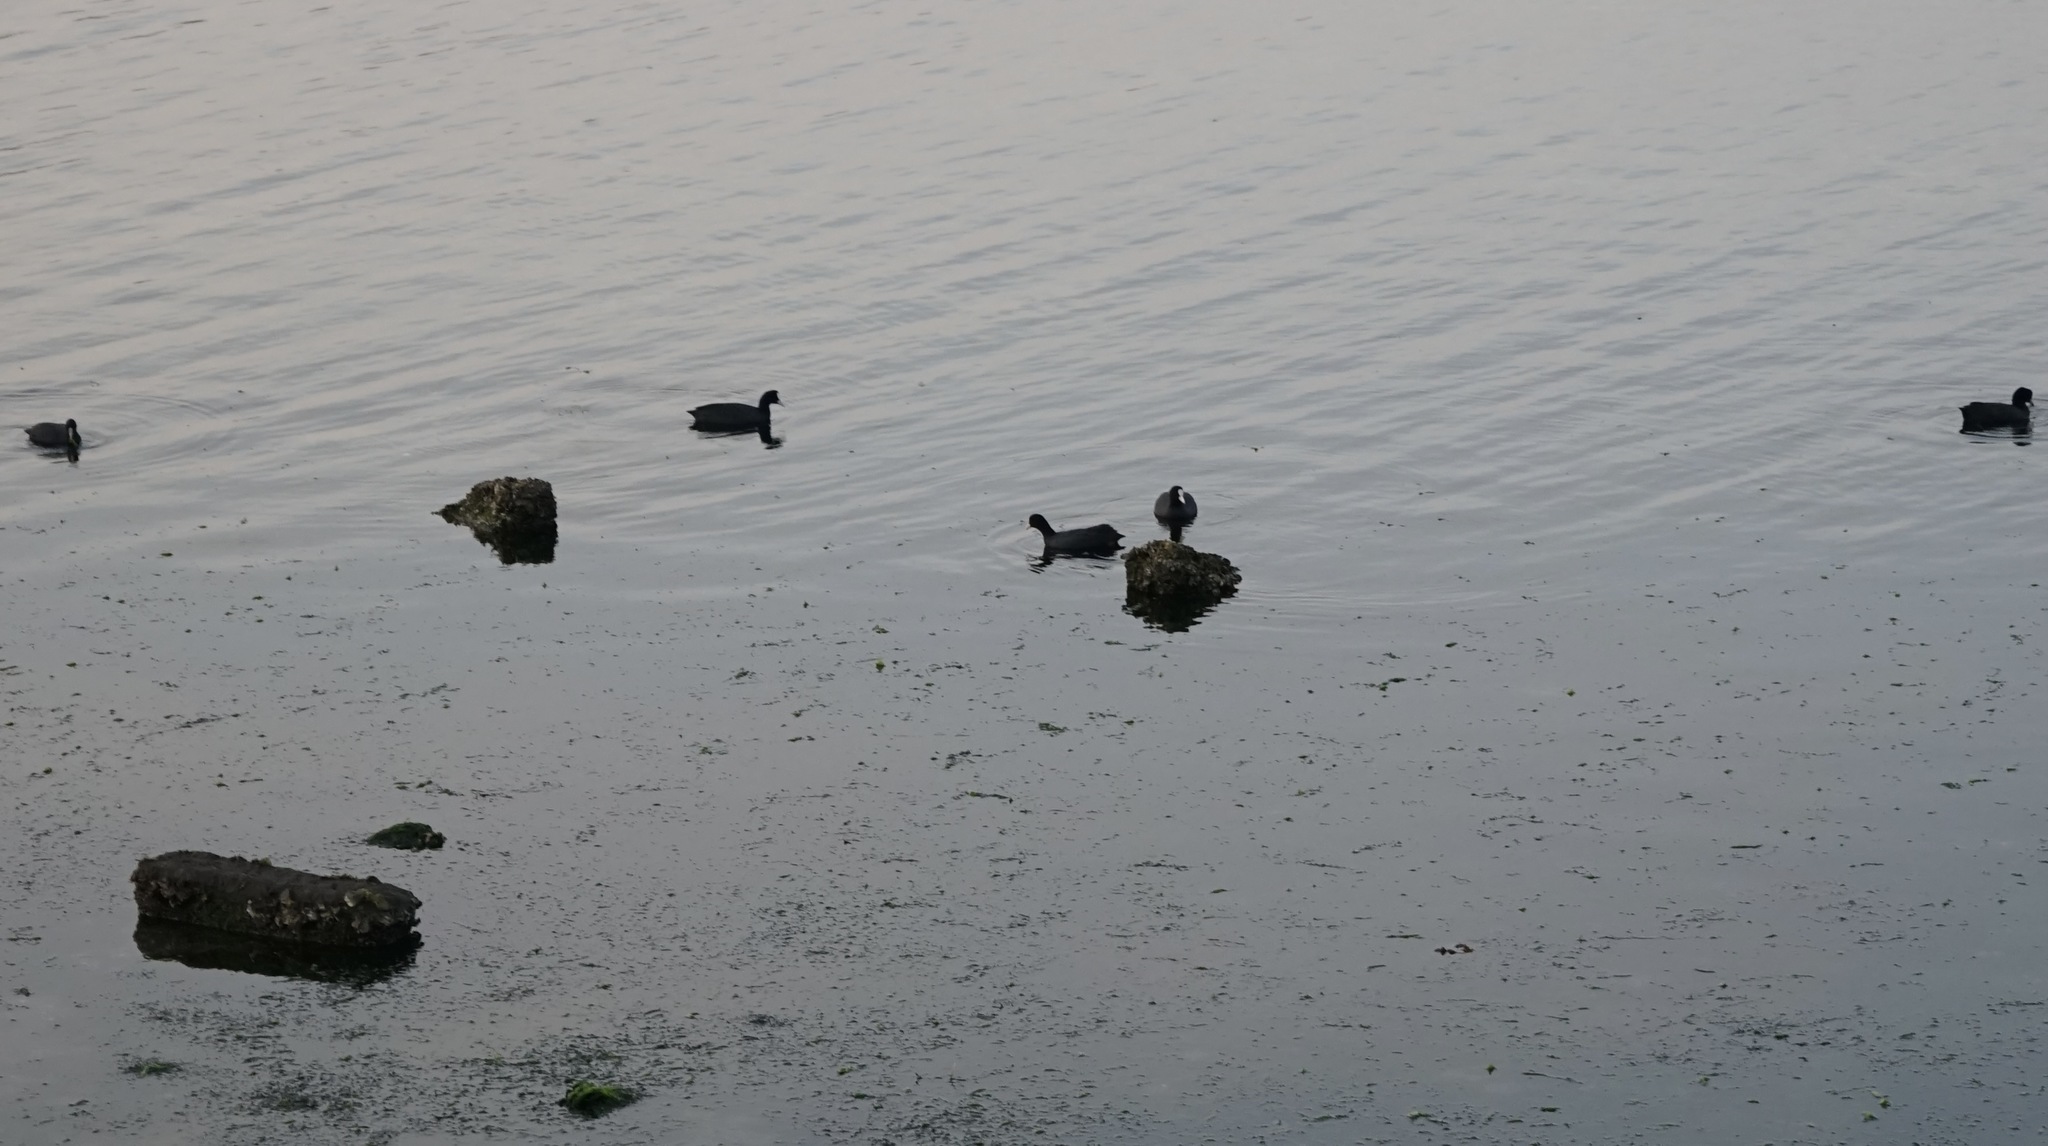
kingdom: Animalia
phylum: Chordata
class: Aves
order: Gruiformes
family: Rallidae
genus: Fulica
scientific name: Fulica atra
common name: Eurasian coot
